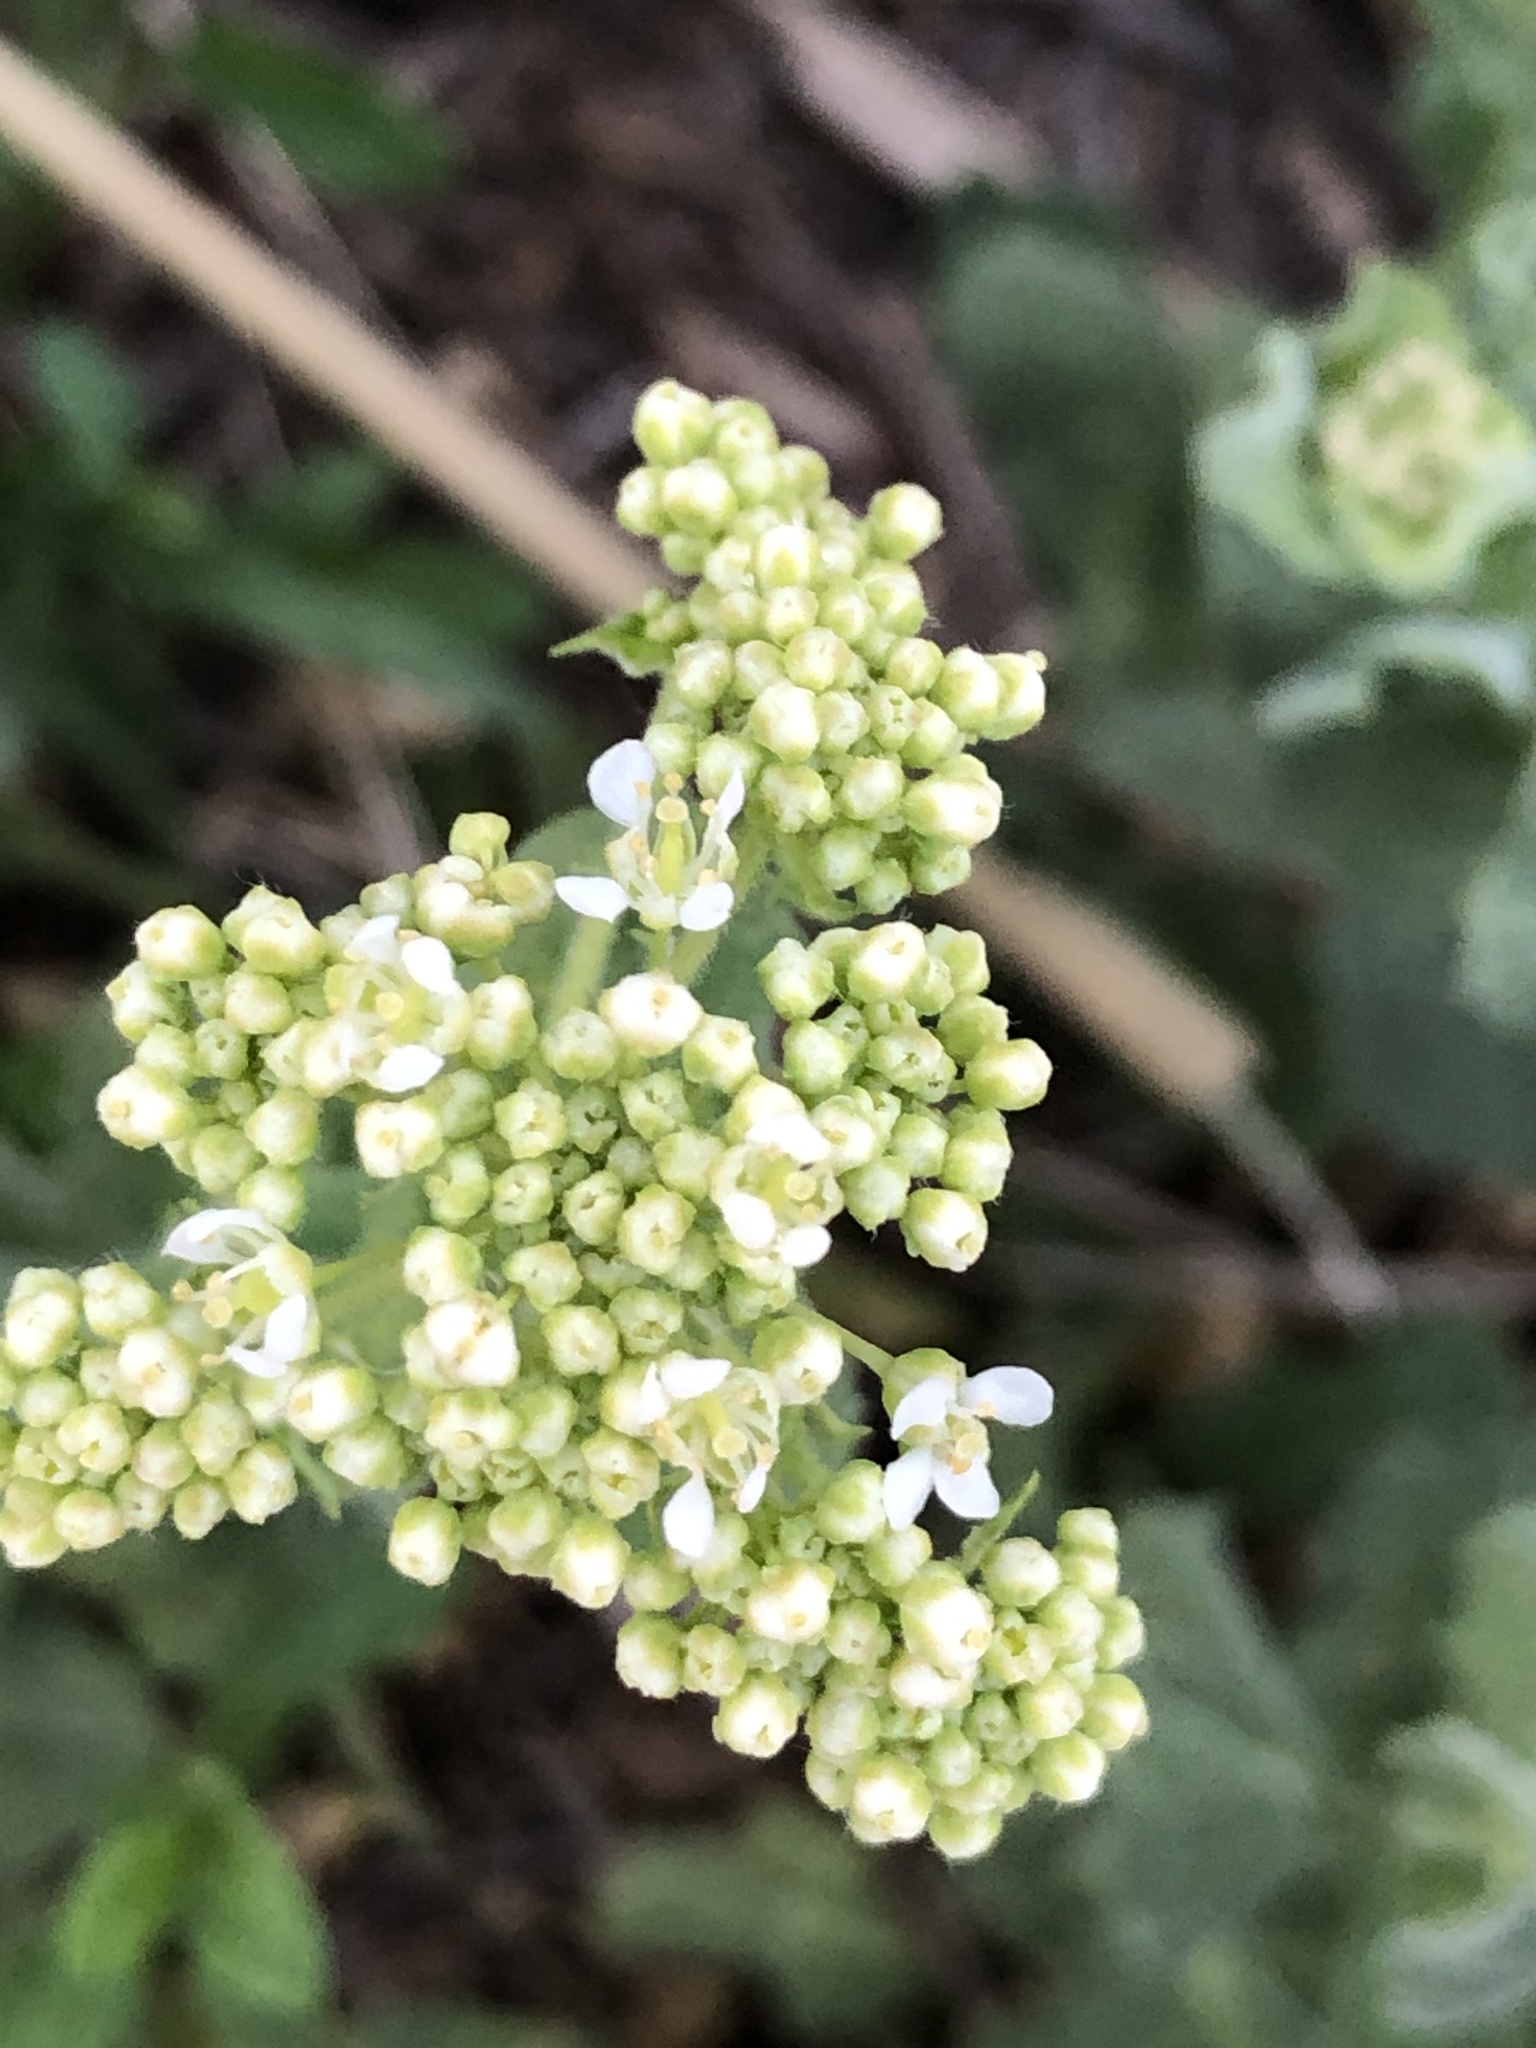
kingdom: Plantae
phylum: Tracheophyta
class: Magnoliopsida
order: Brassicales
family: Brassicaceae
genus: Lepidium
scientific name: Lepidium draba
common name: Hoary cress
